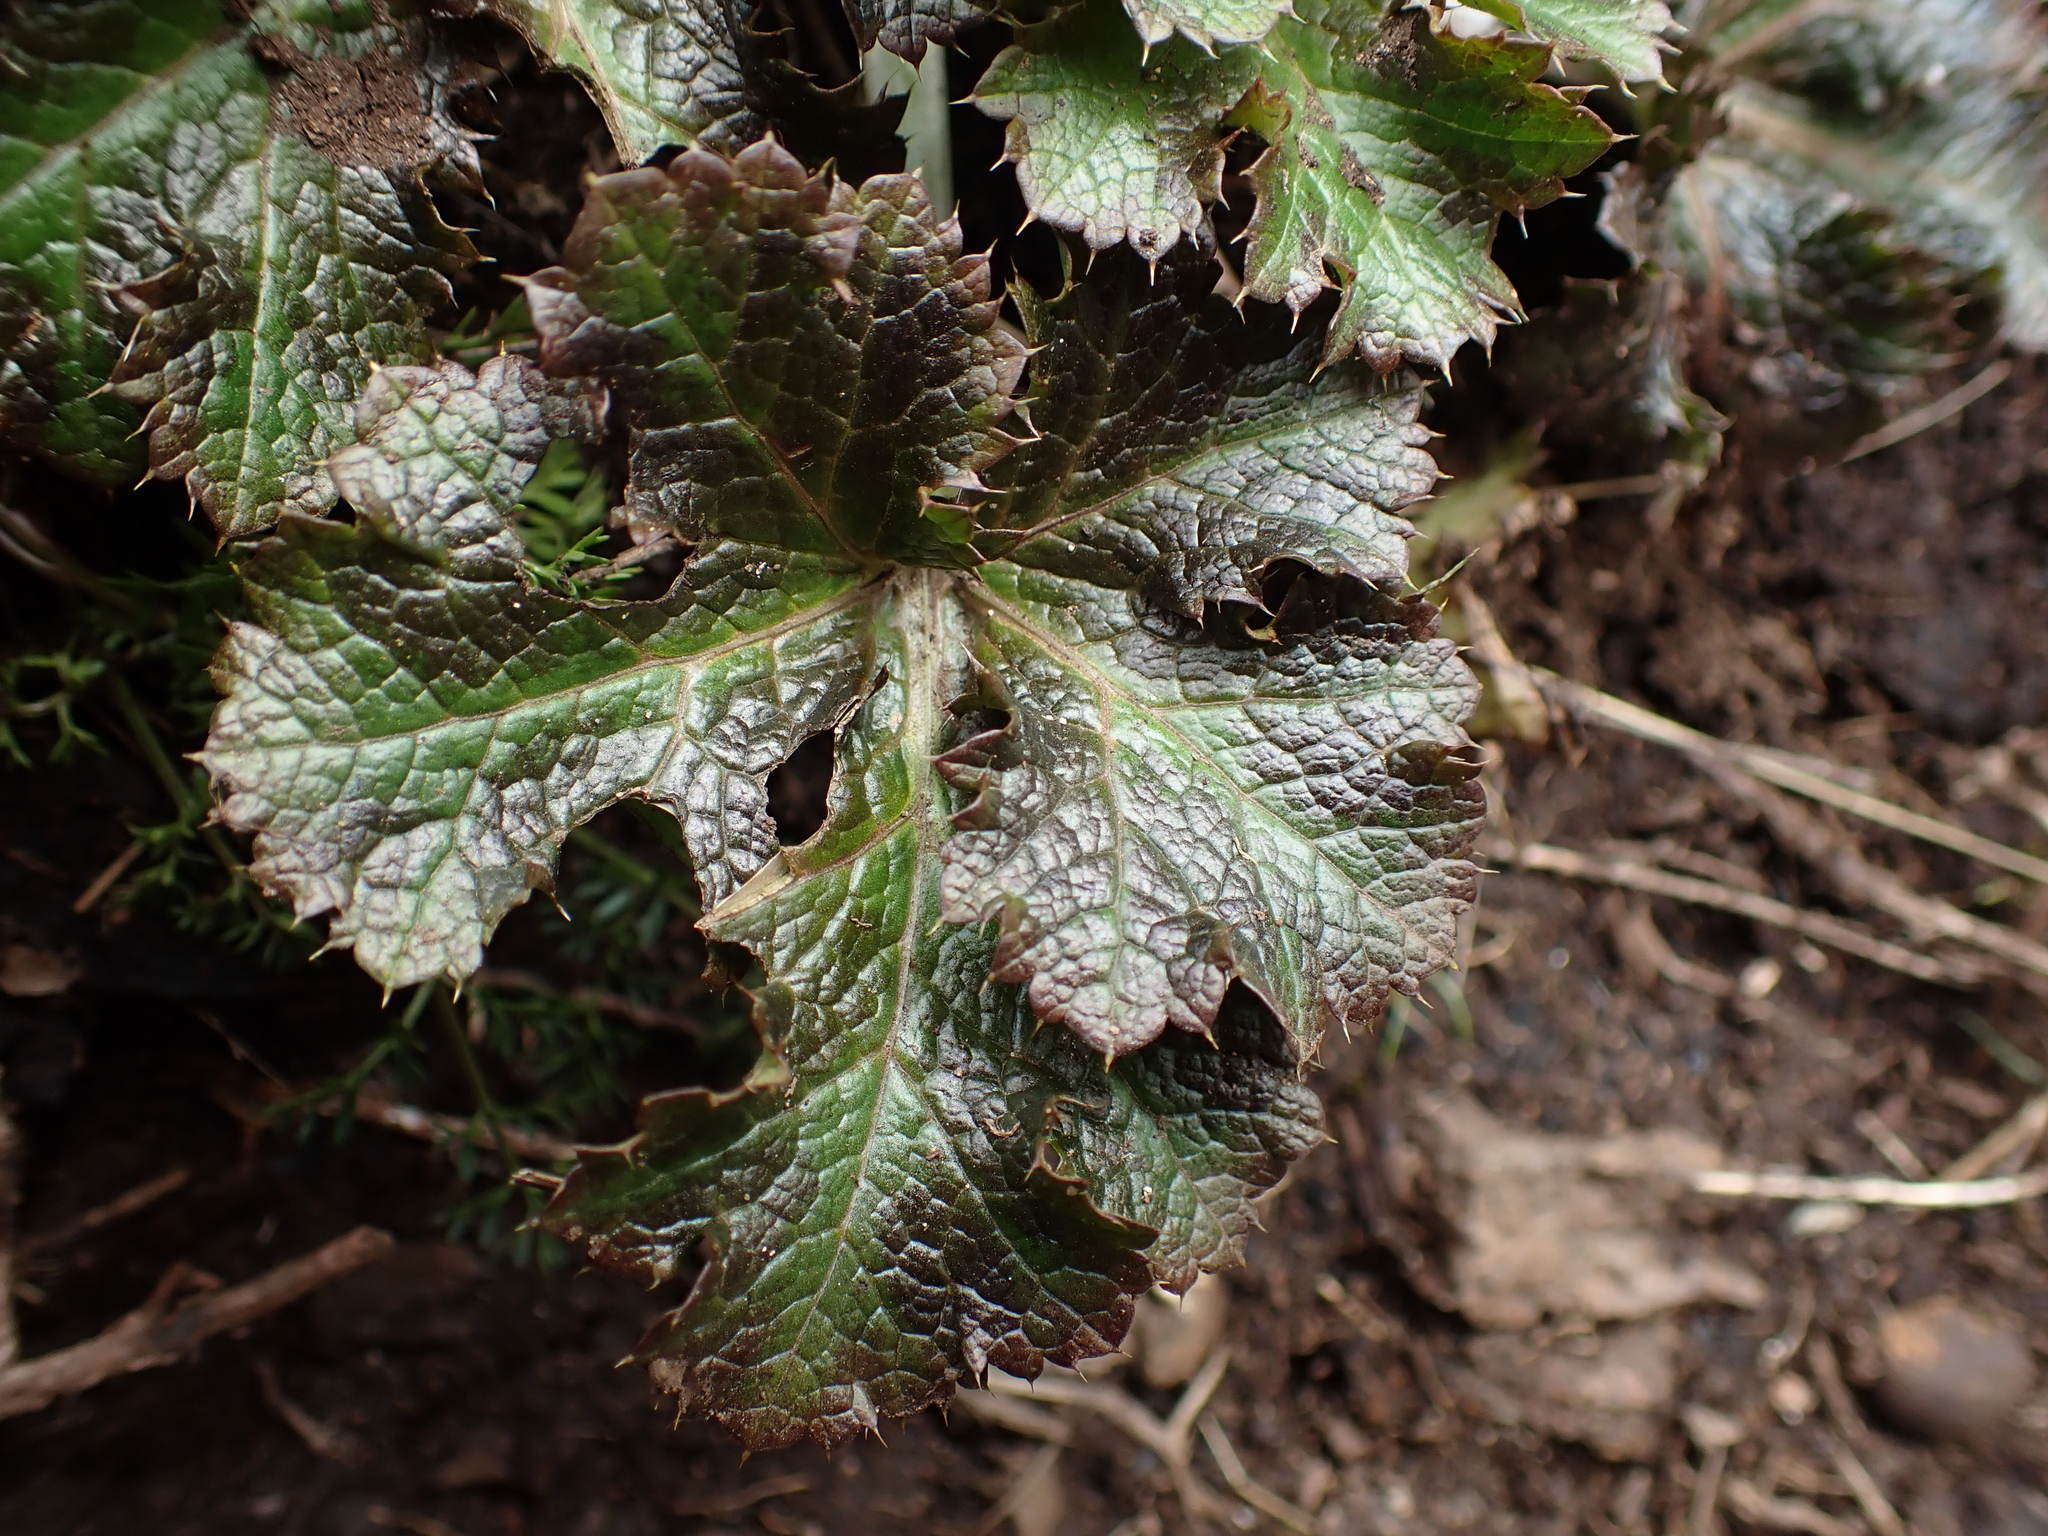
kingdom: Plantae
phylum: Tracheophyta
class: Magnoliopsida
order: Apiales
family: Apiaceae
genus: Sanicula
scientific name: Sanicula crassicaulis
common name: Western snakeroot
